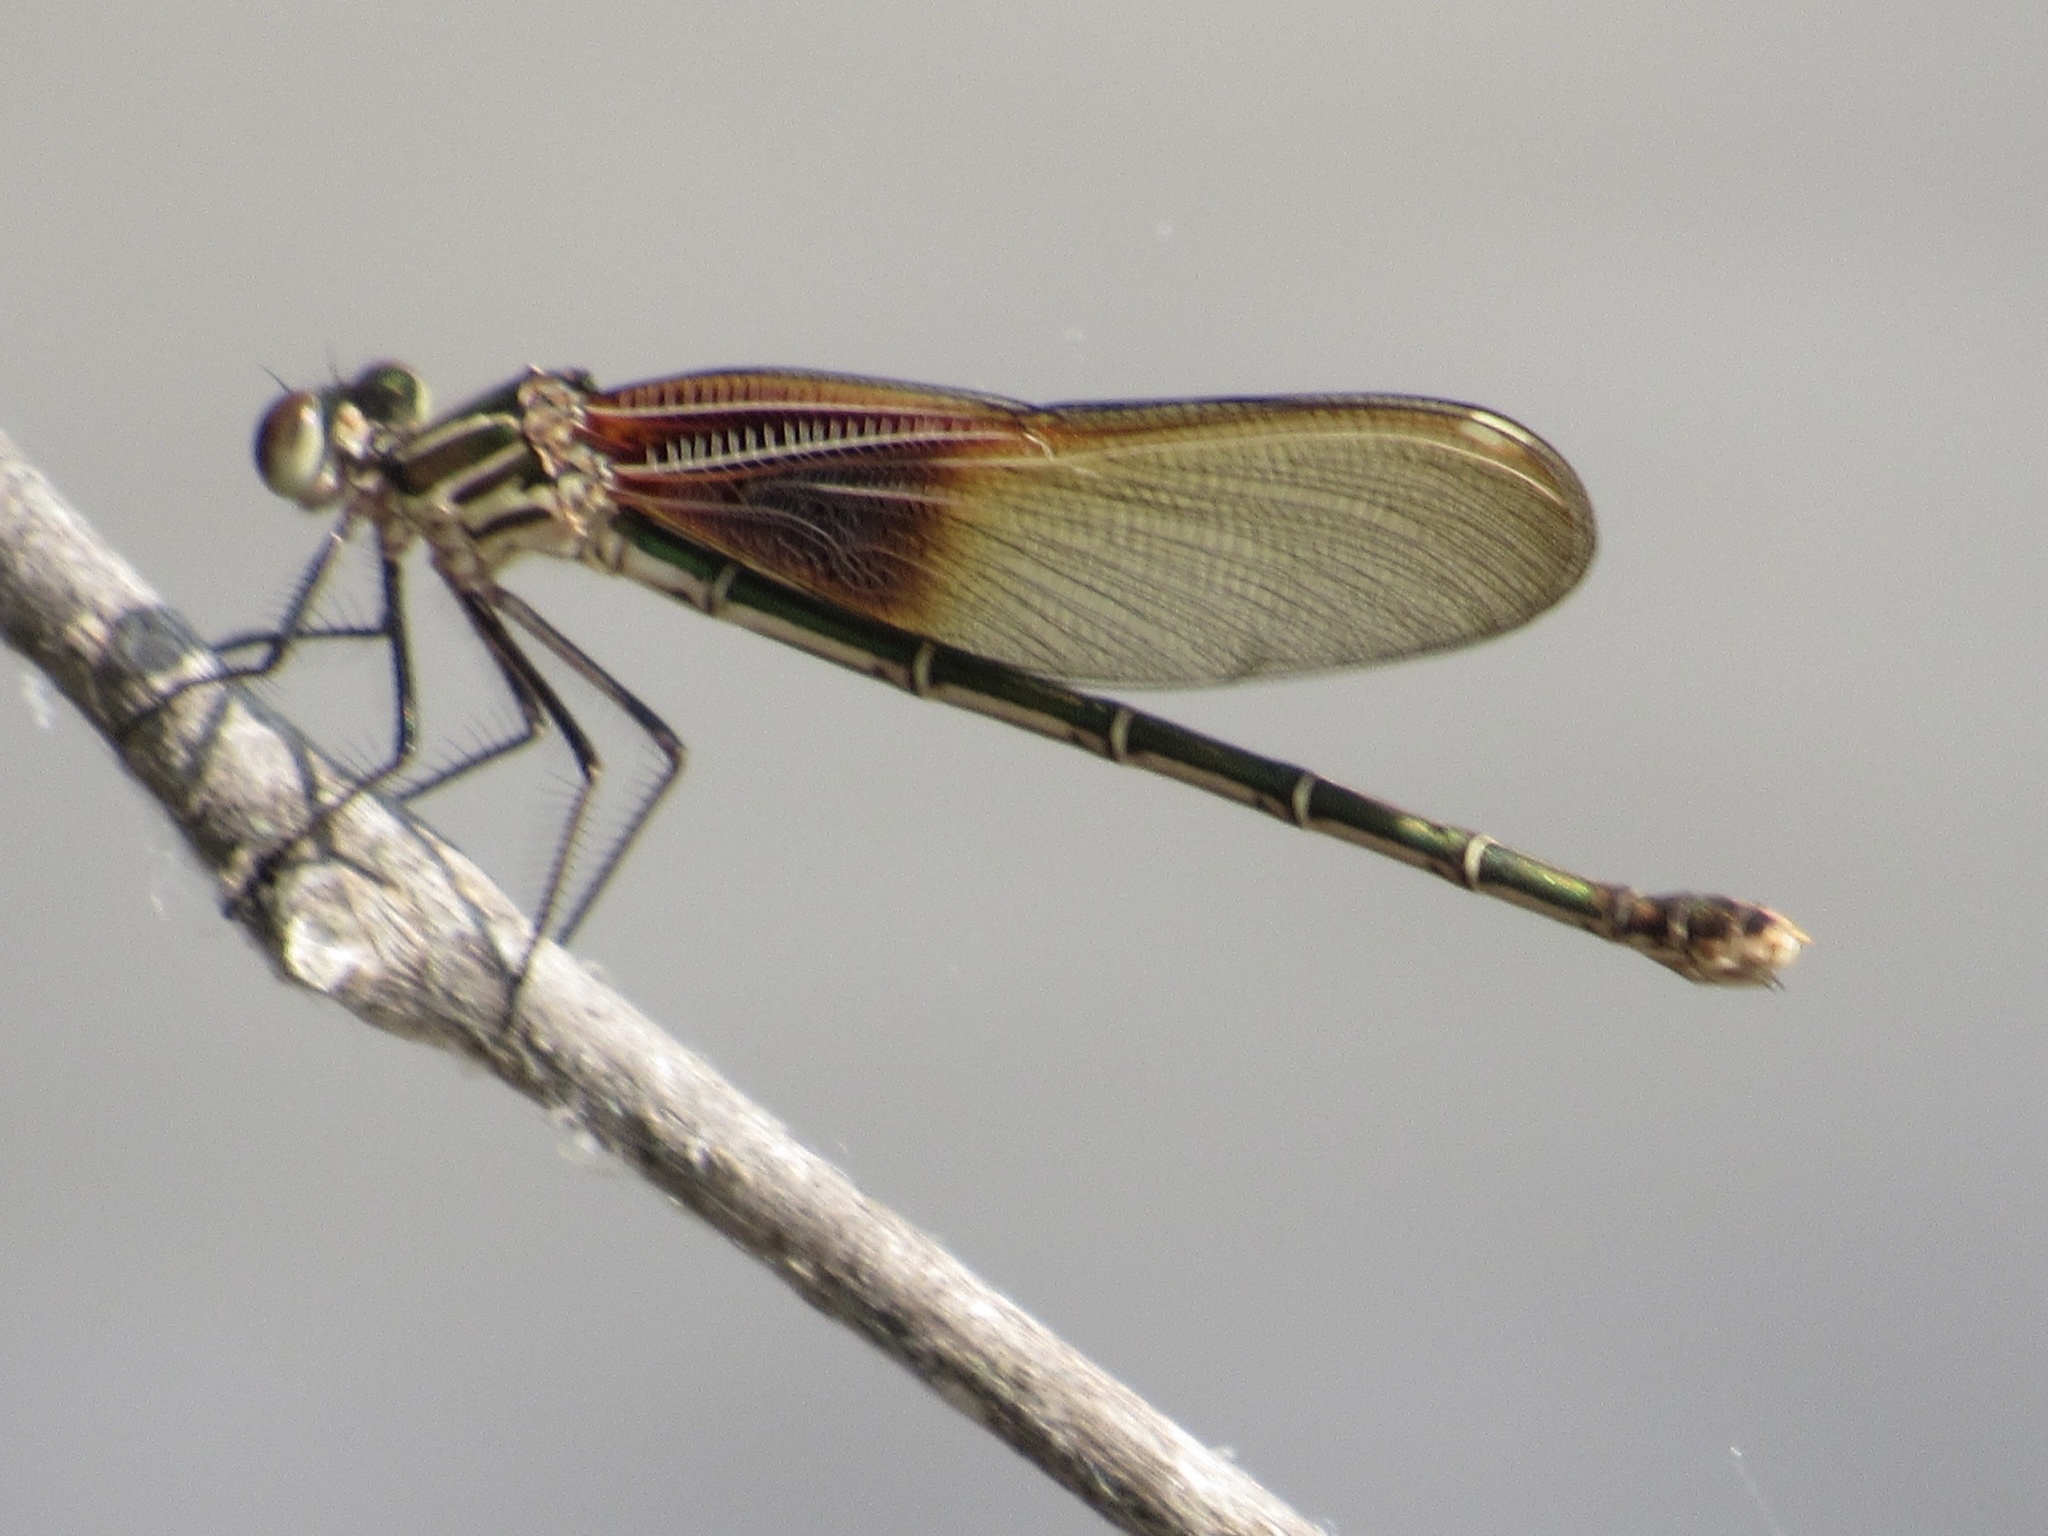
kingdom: Animalia
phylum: Arthropoda
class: Insecta
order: Odonata
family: Calopterygidae
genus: Hetaerina
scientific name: Hetaerina americana
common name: American rubyspot
